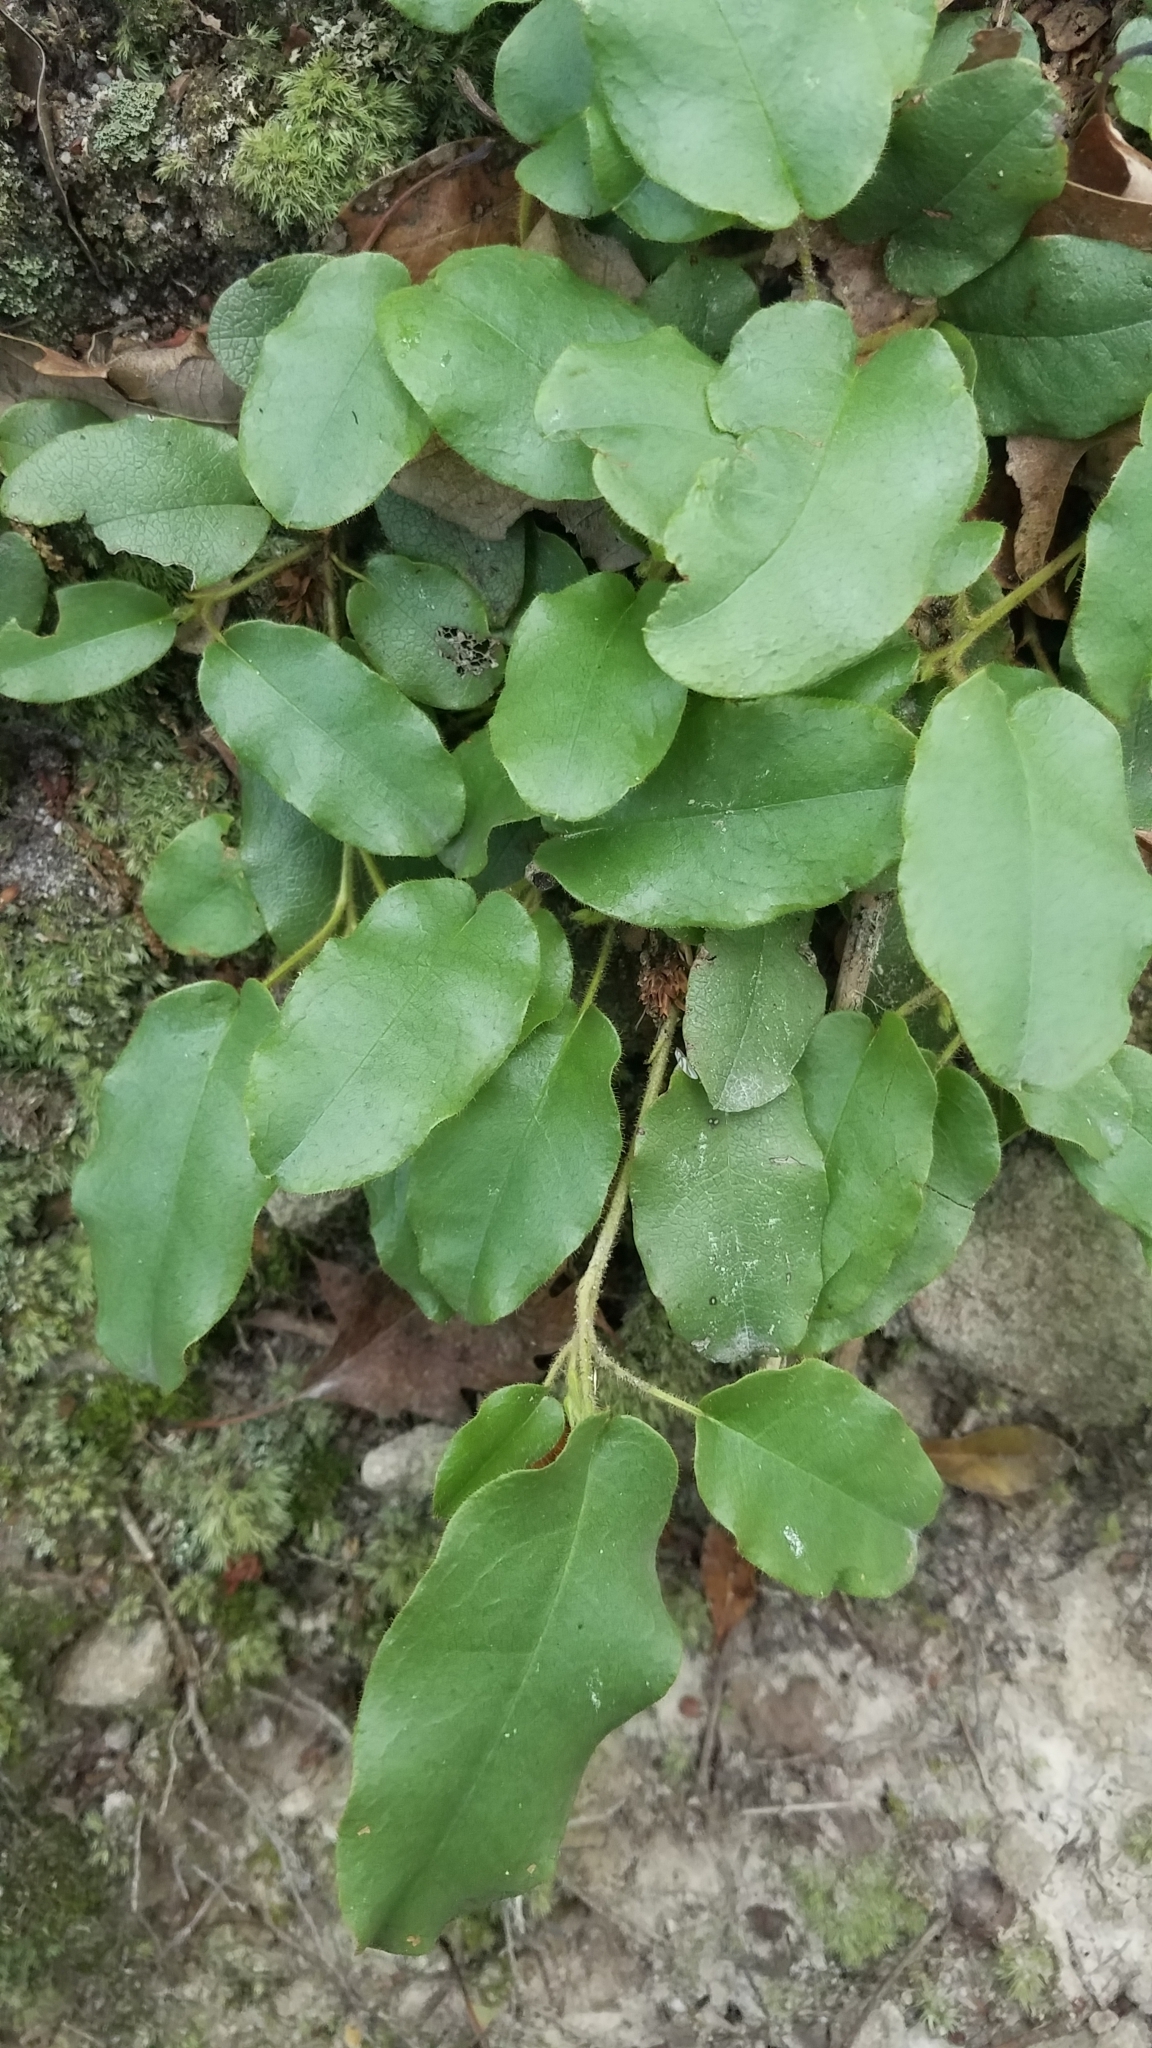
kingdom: Plantae
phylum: Tracheophyta
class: Magnoliopsida
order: Ericales
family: Ericaceae
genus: Epigaea
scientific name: Epigaea repens
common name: Gravelroot
